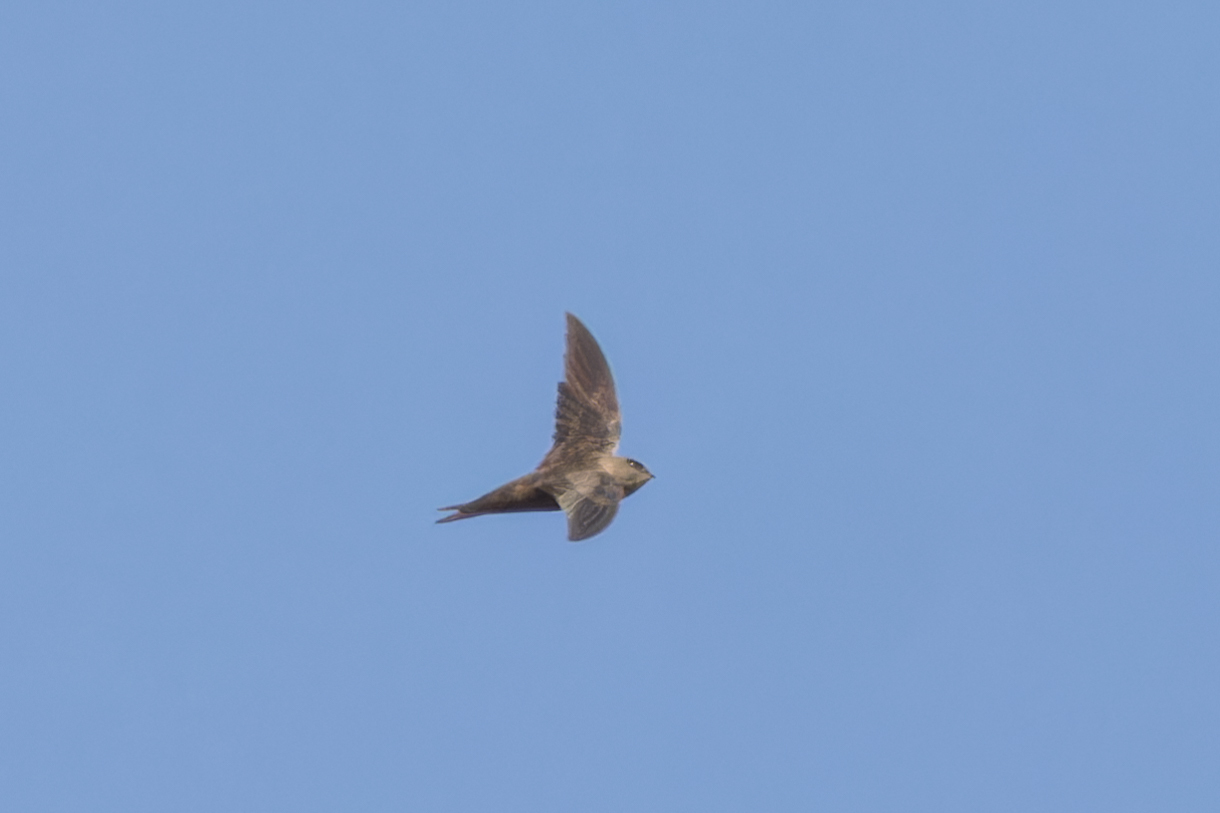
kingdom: Animalia
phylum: Chordata
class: Aves
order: Apodiformes
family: Apodidae
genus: Apus
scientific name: Apus alexandri
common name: Cape verde swift
